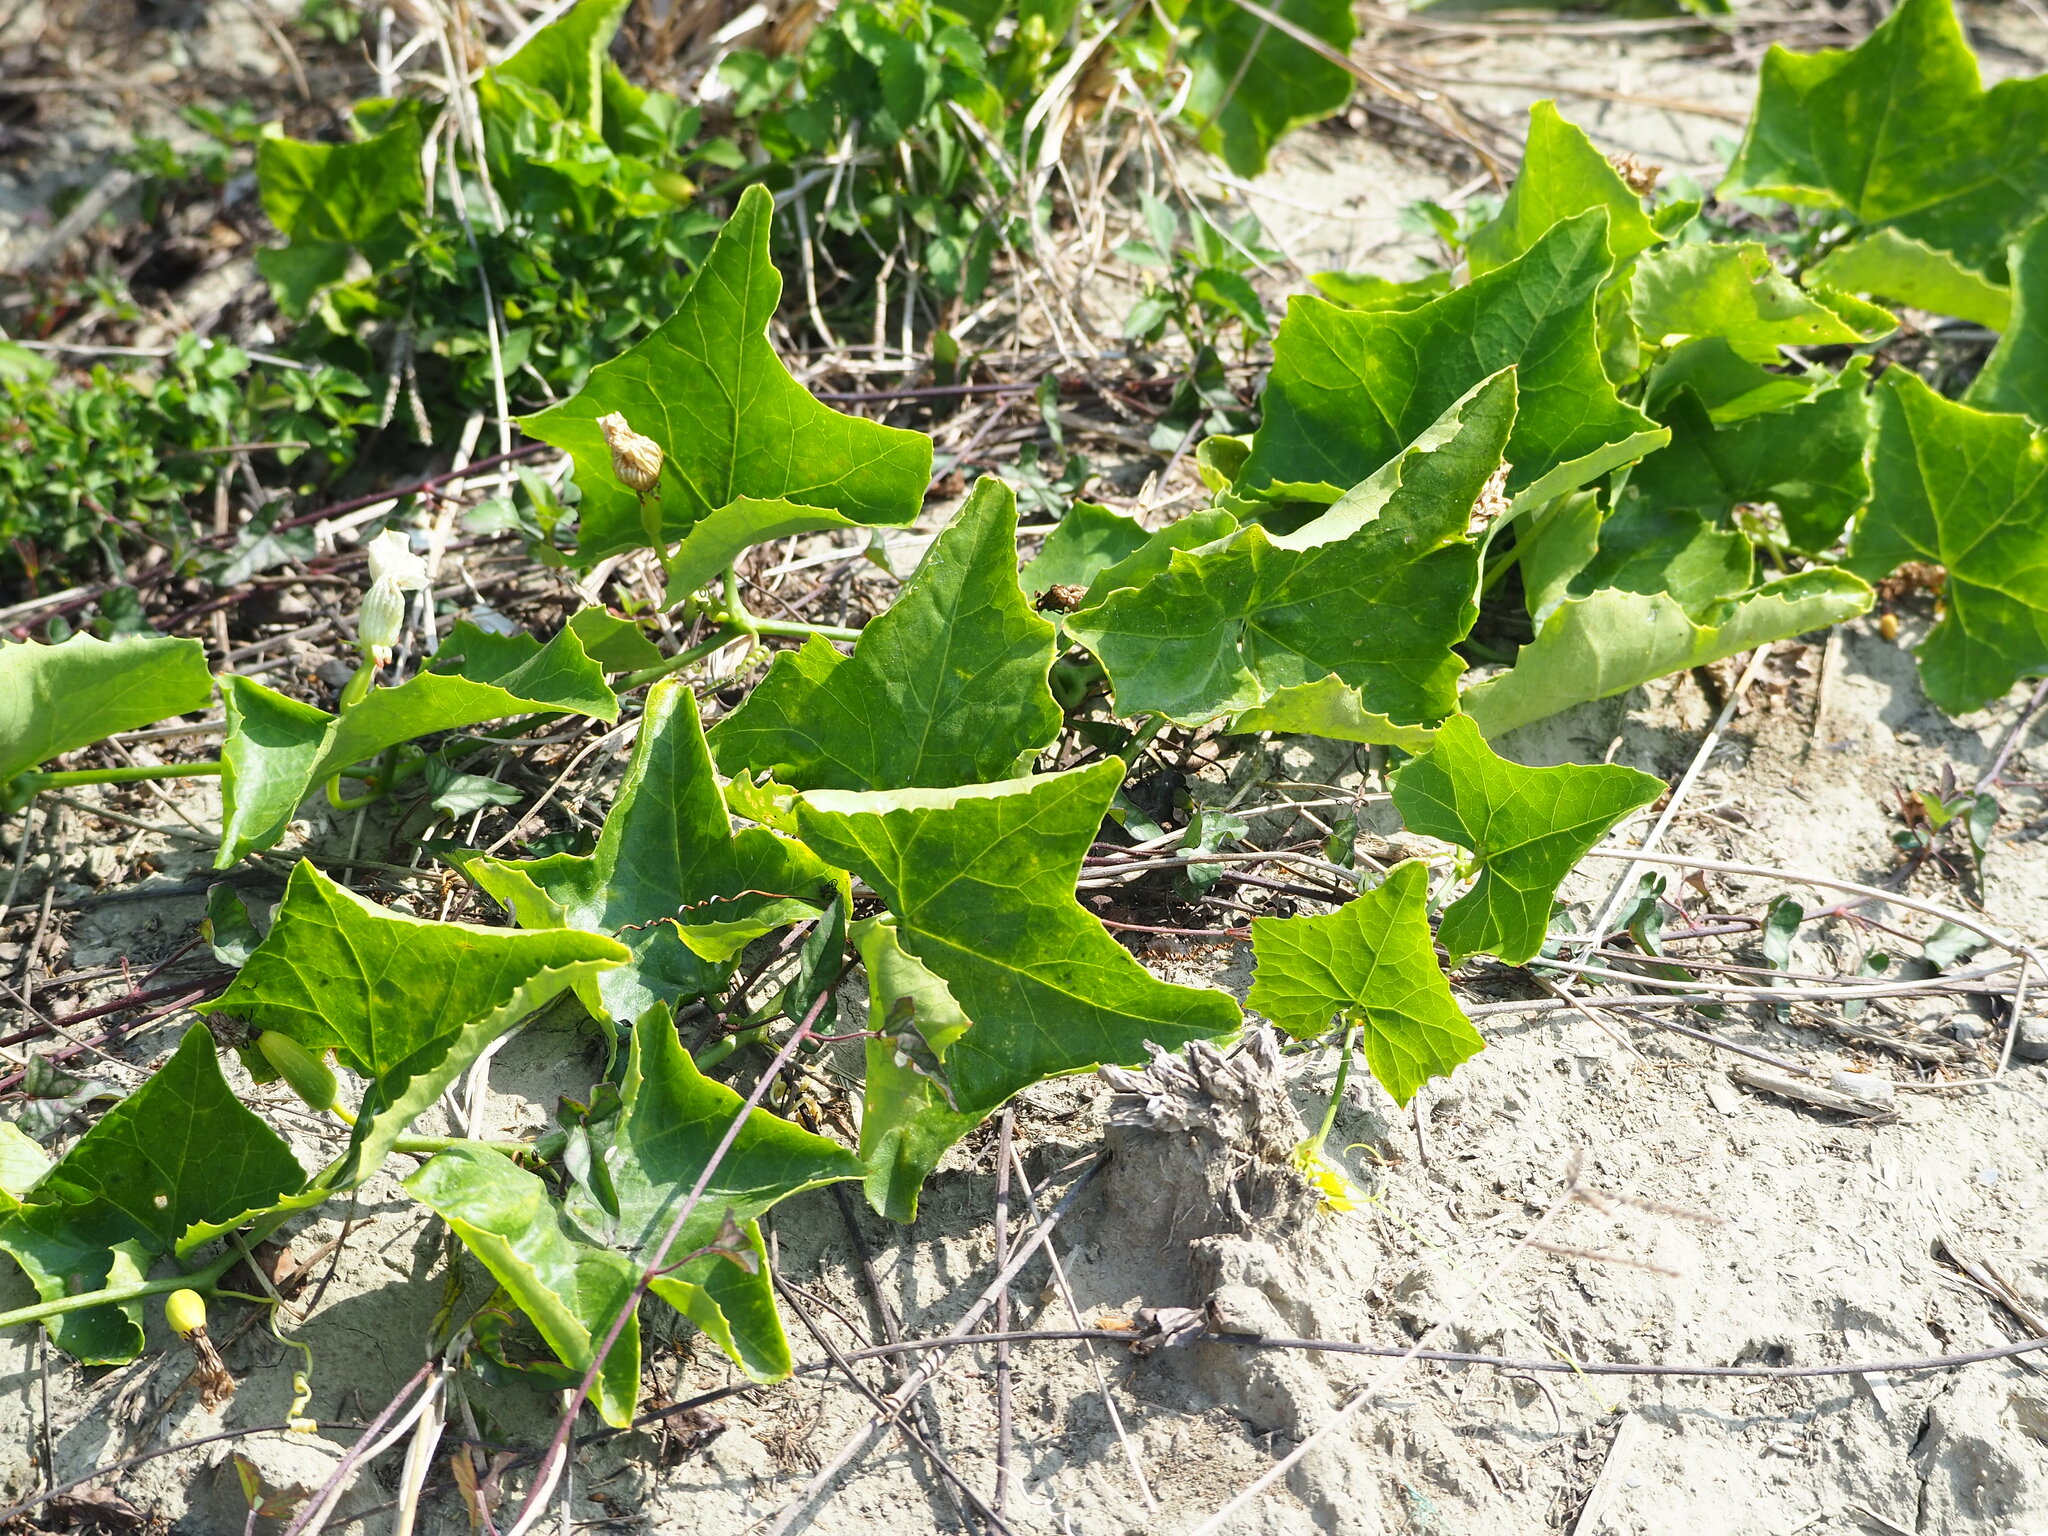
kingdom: Plantae
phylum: Tracheophyta
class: Magnoliopsida
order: Cucurbitales
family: Cucurbitaceae
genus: Coccinia
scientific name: Coccinia grandis
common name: Ivy gourd
